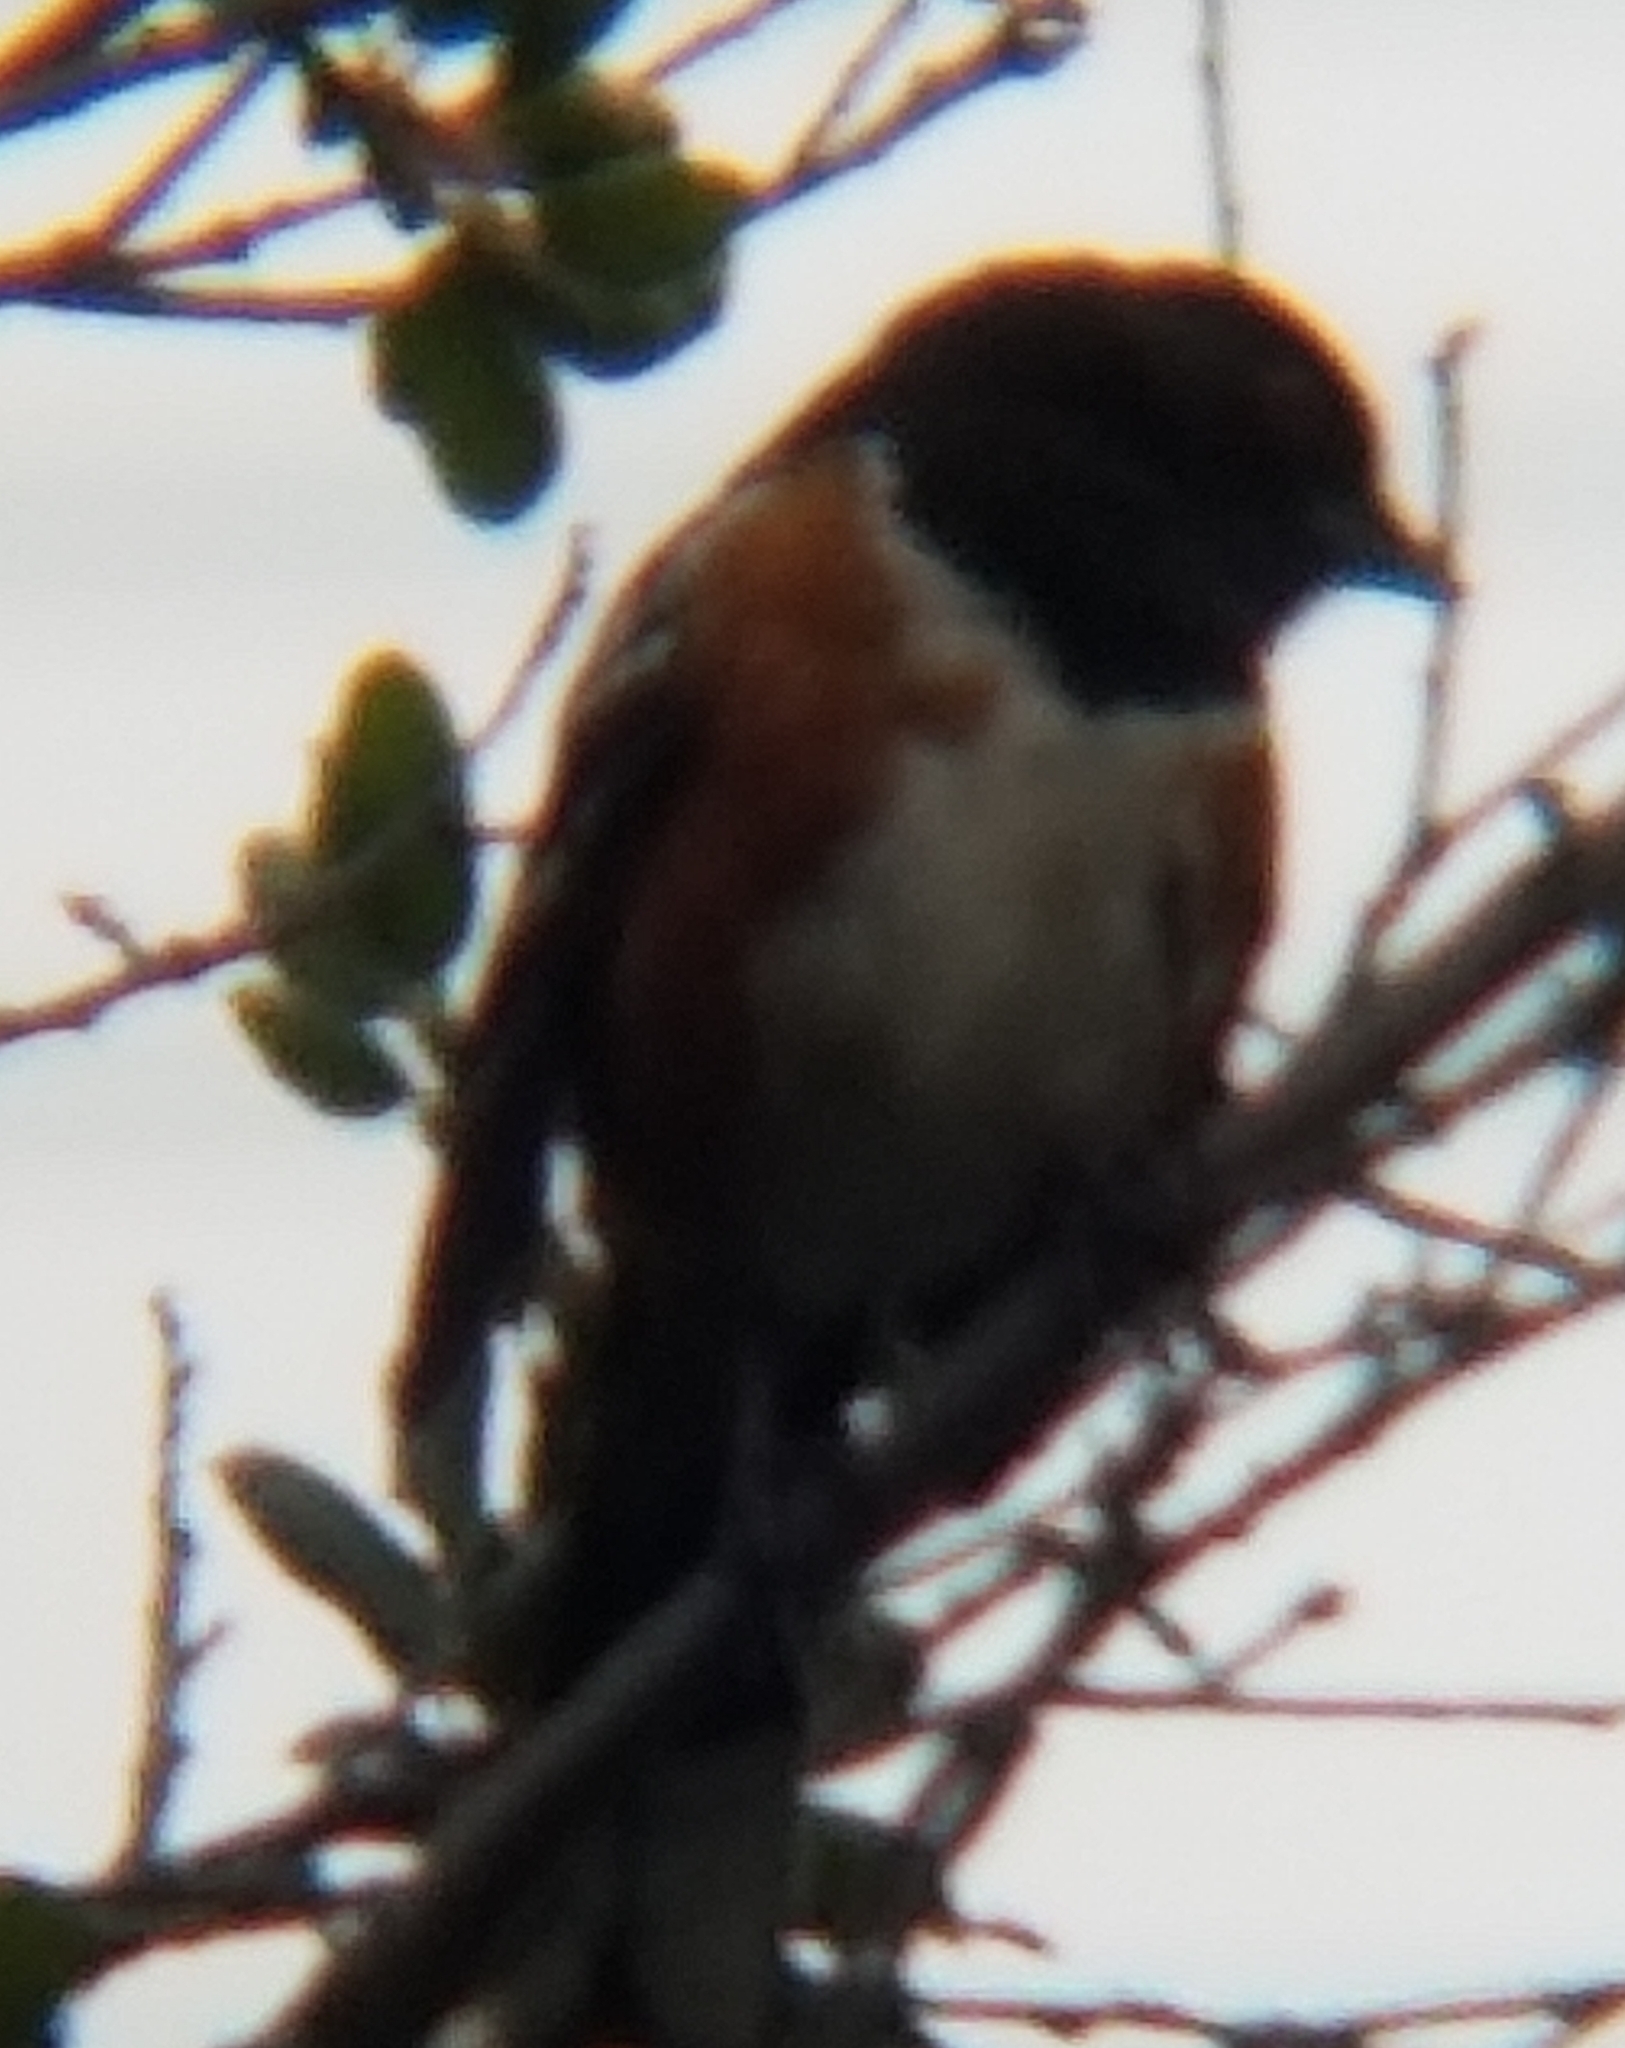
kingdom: Animalia
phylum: Chordata
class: Aves
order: Passeriformes
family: Passerellidae
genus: Pipilo
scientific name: Pipilo maculatus
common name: Spotted towhee
